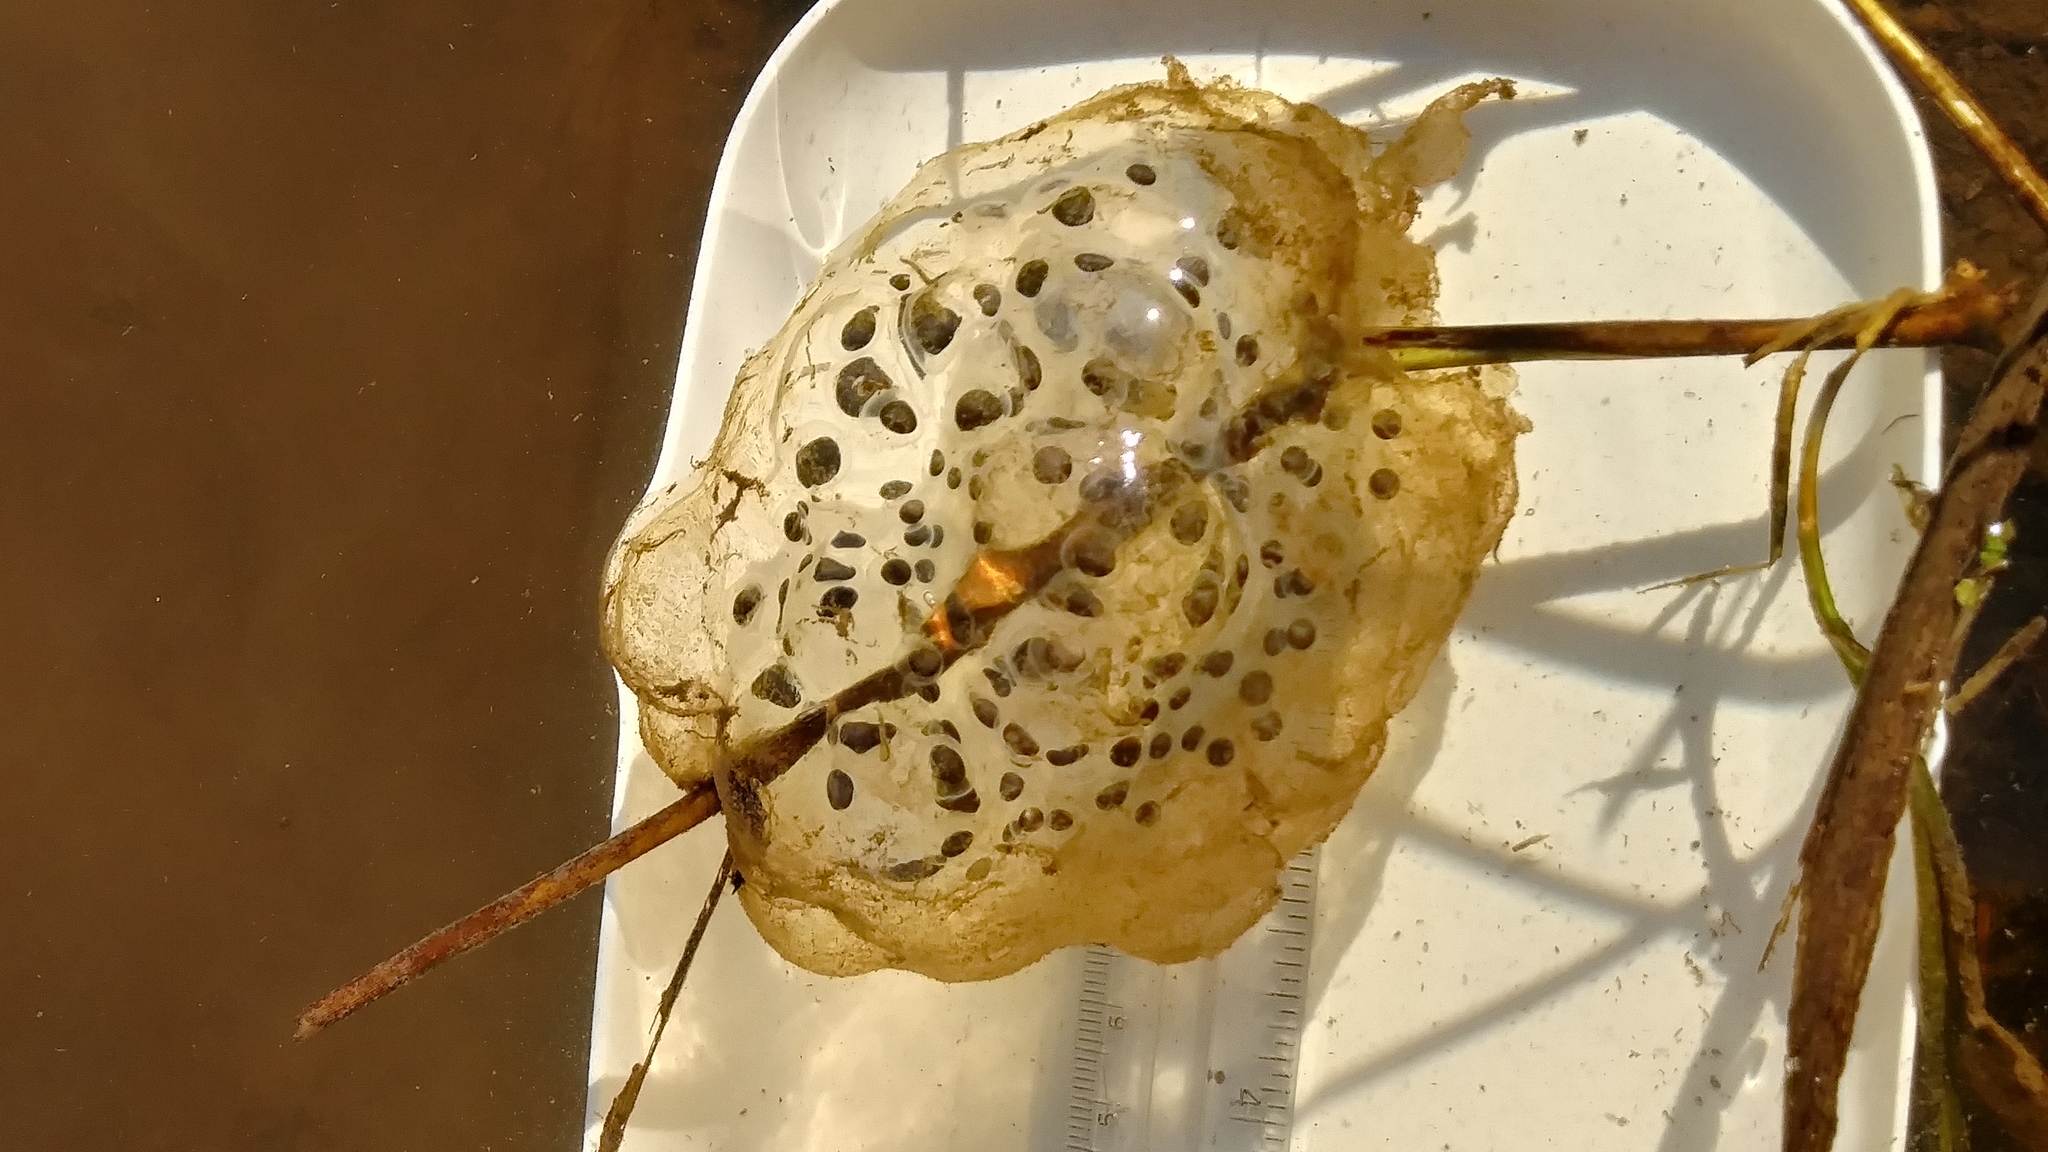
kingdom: Animalia
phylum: Chordata
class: Amphibia
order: Caudata
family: Ambystomatidae
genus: Ambystoma
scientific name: Ambystoma gracile
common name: Northwestern salamander
